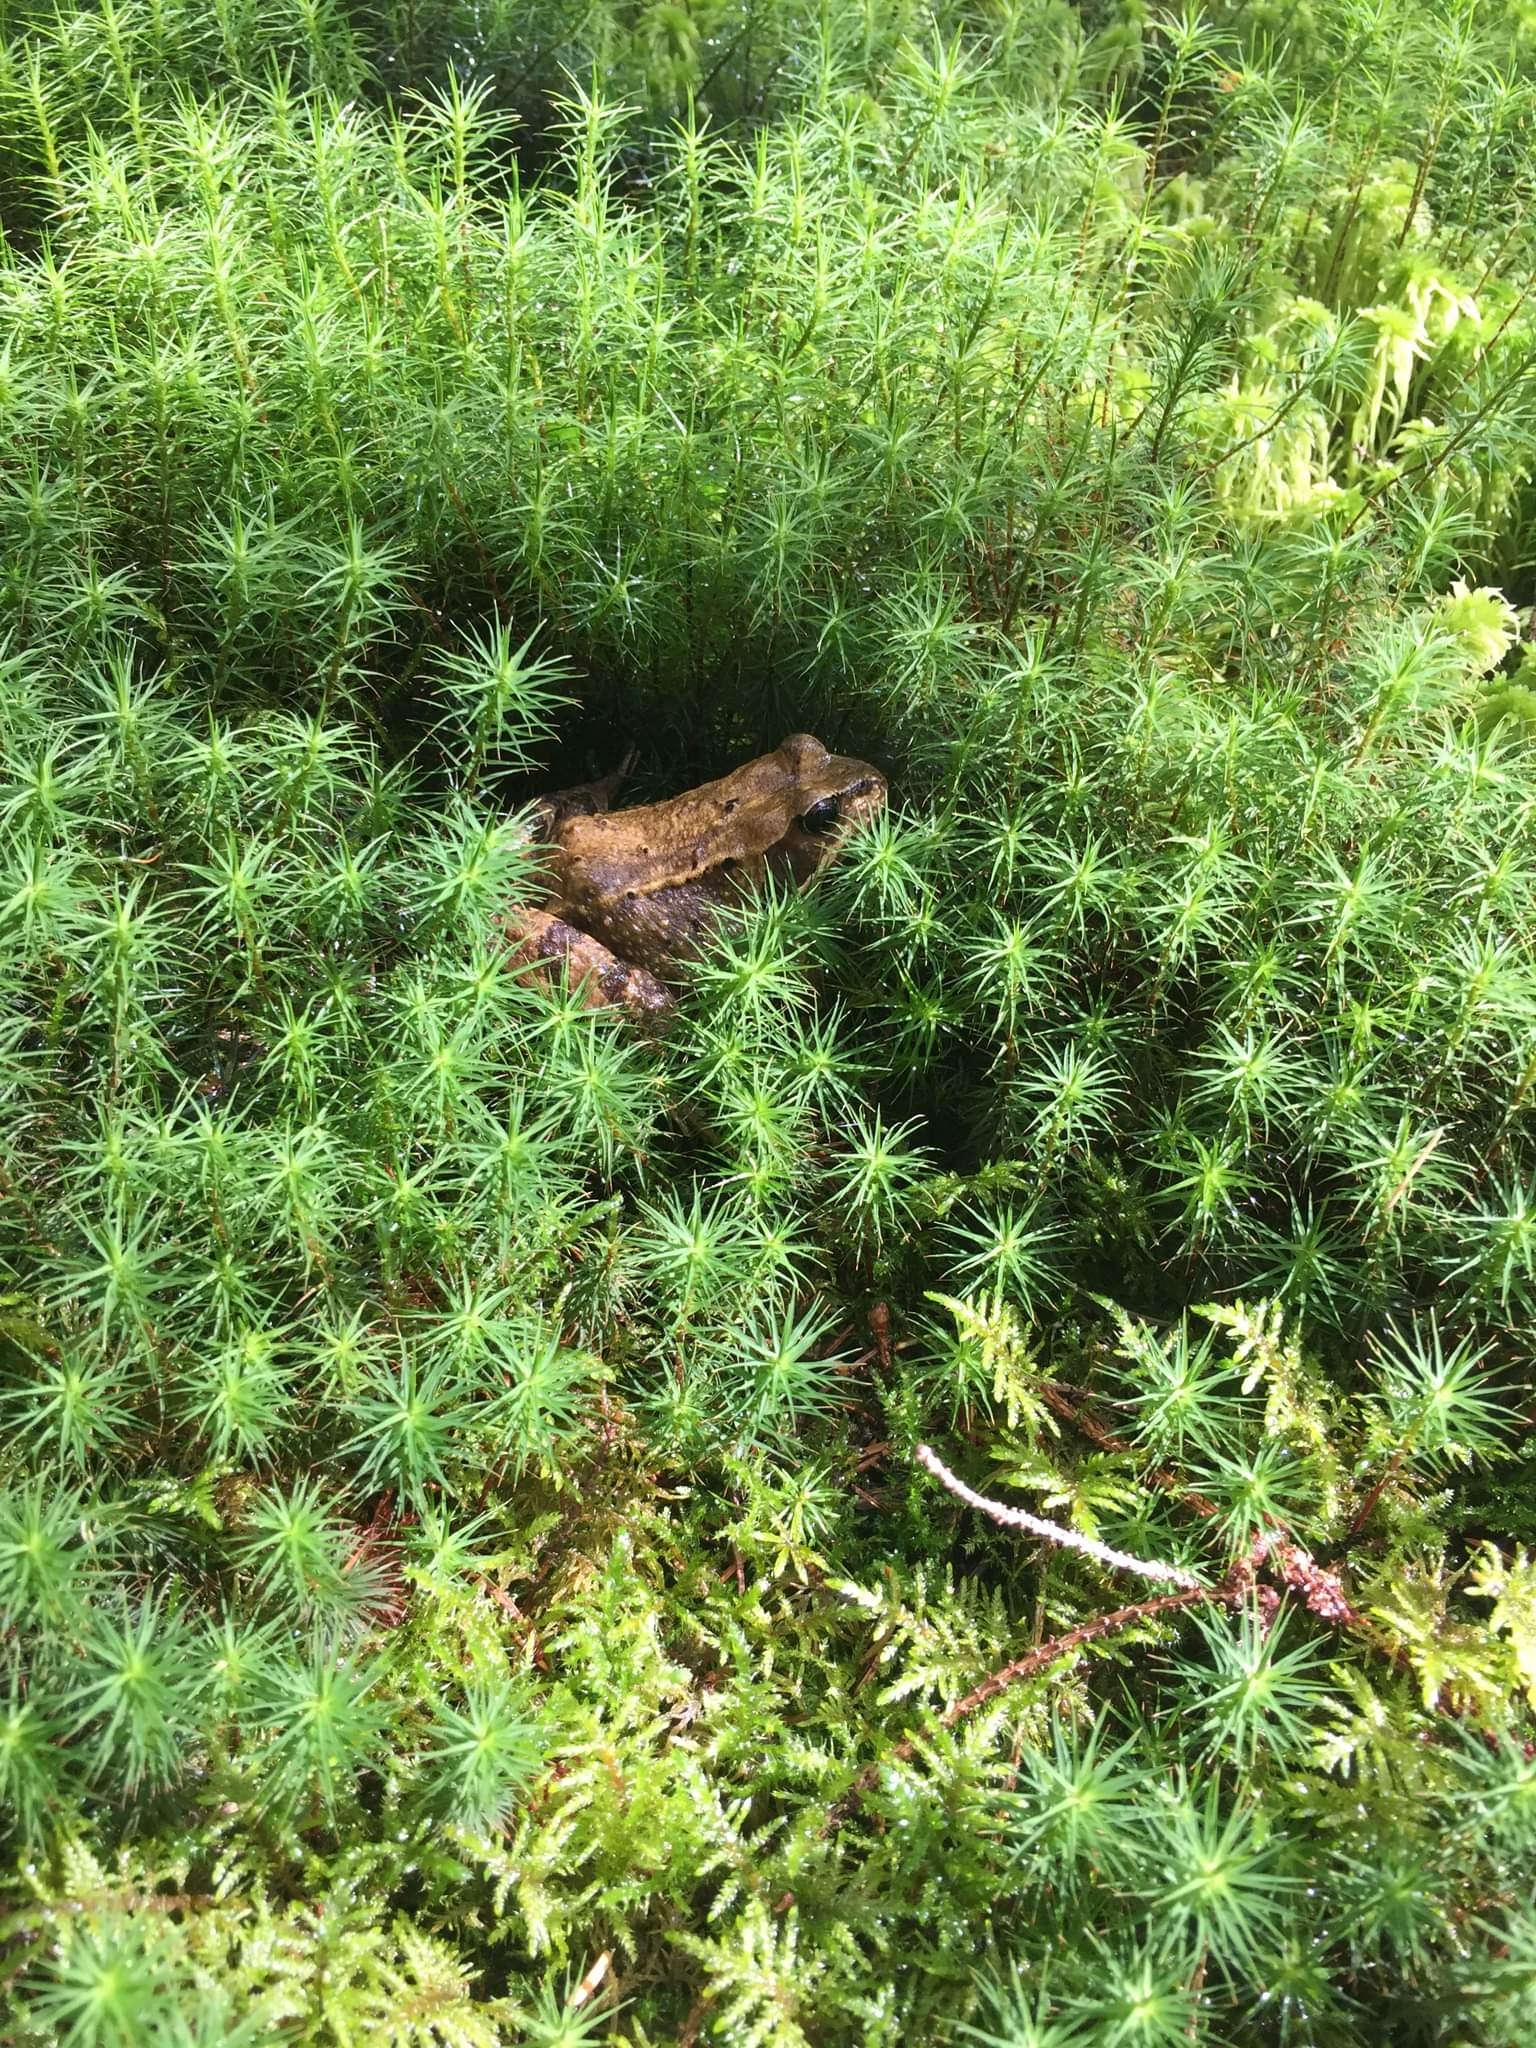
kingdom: Animalia
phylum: Chordata
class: Amphibia
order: Anura
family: Ranidae
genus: Rana
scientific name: Rana temporaria
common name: Common frog
